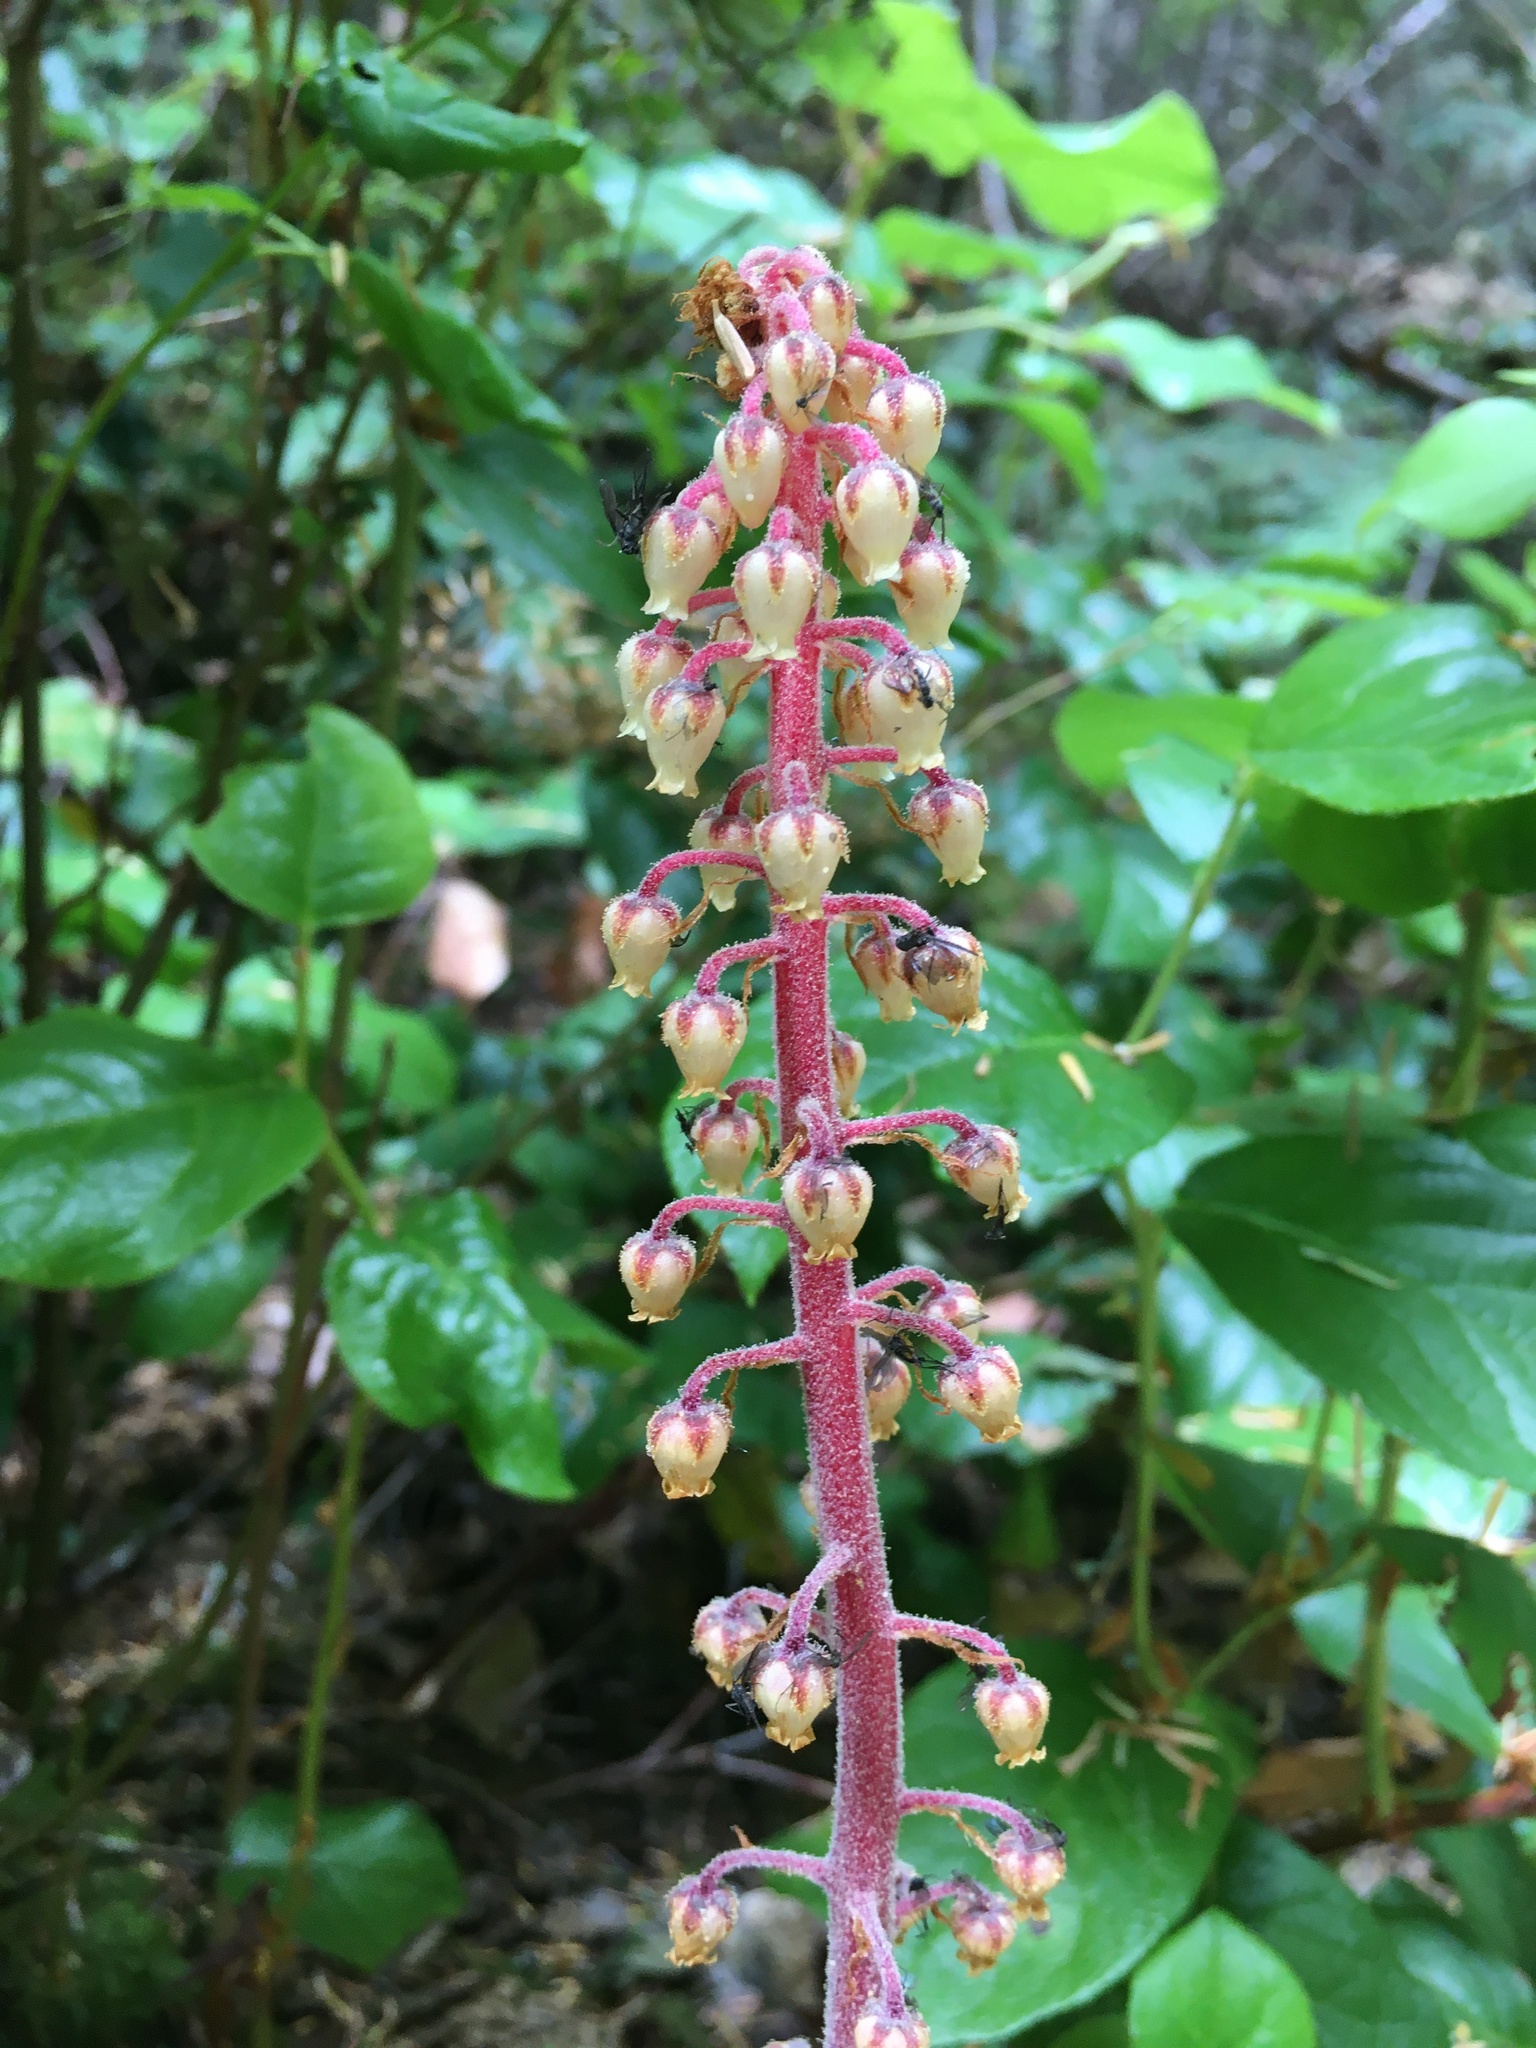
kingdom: Plantae
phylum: Tracheophyta
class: Magnoliopsida
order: Ericales
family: Ericaceae
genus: Pterospora
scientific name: Pterospora andromedea
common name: Giant bird's-nest
